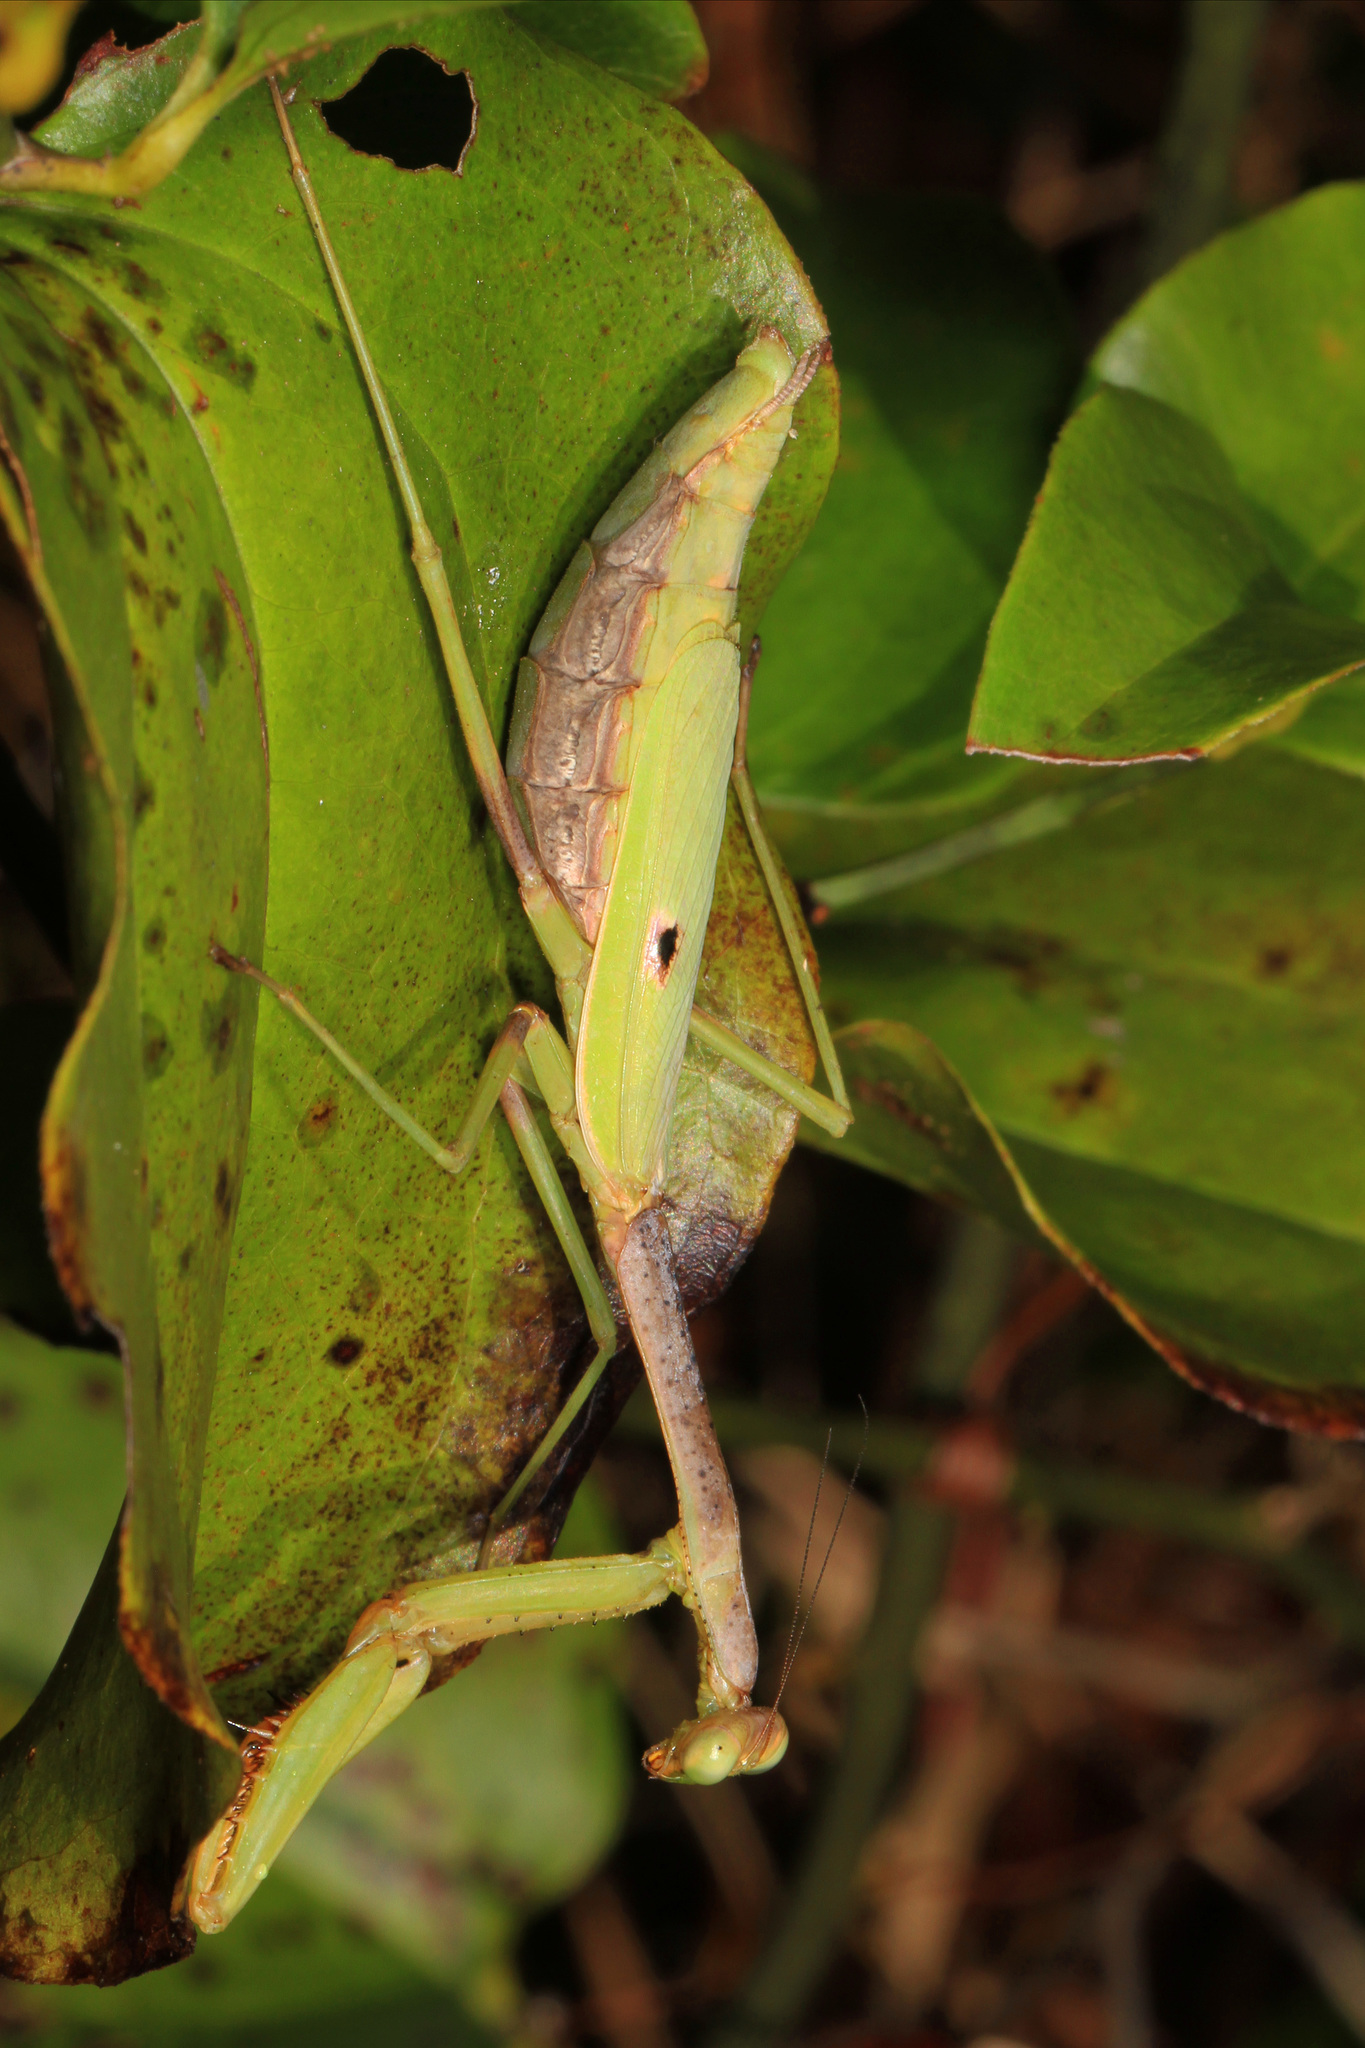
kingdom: Animalia
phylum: Arthropoda
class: Insecta
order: Mantodea
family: Mantidae
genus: Stagmomantis
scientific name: Stagmomantis carolina
